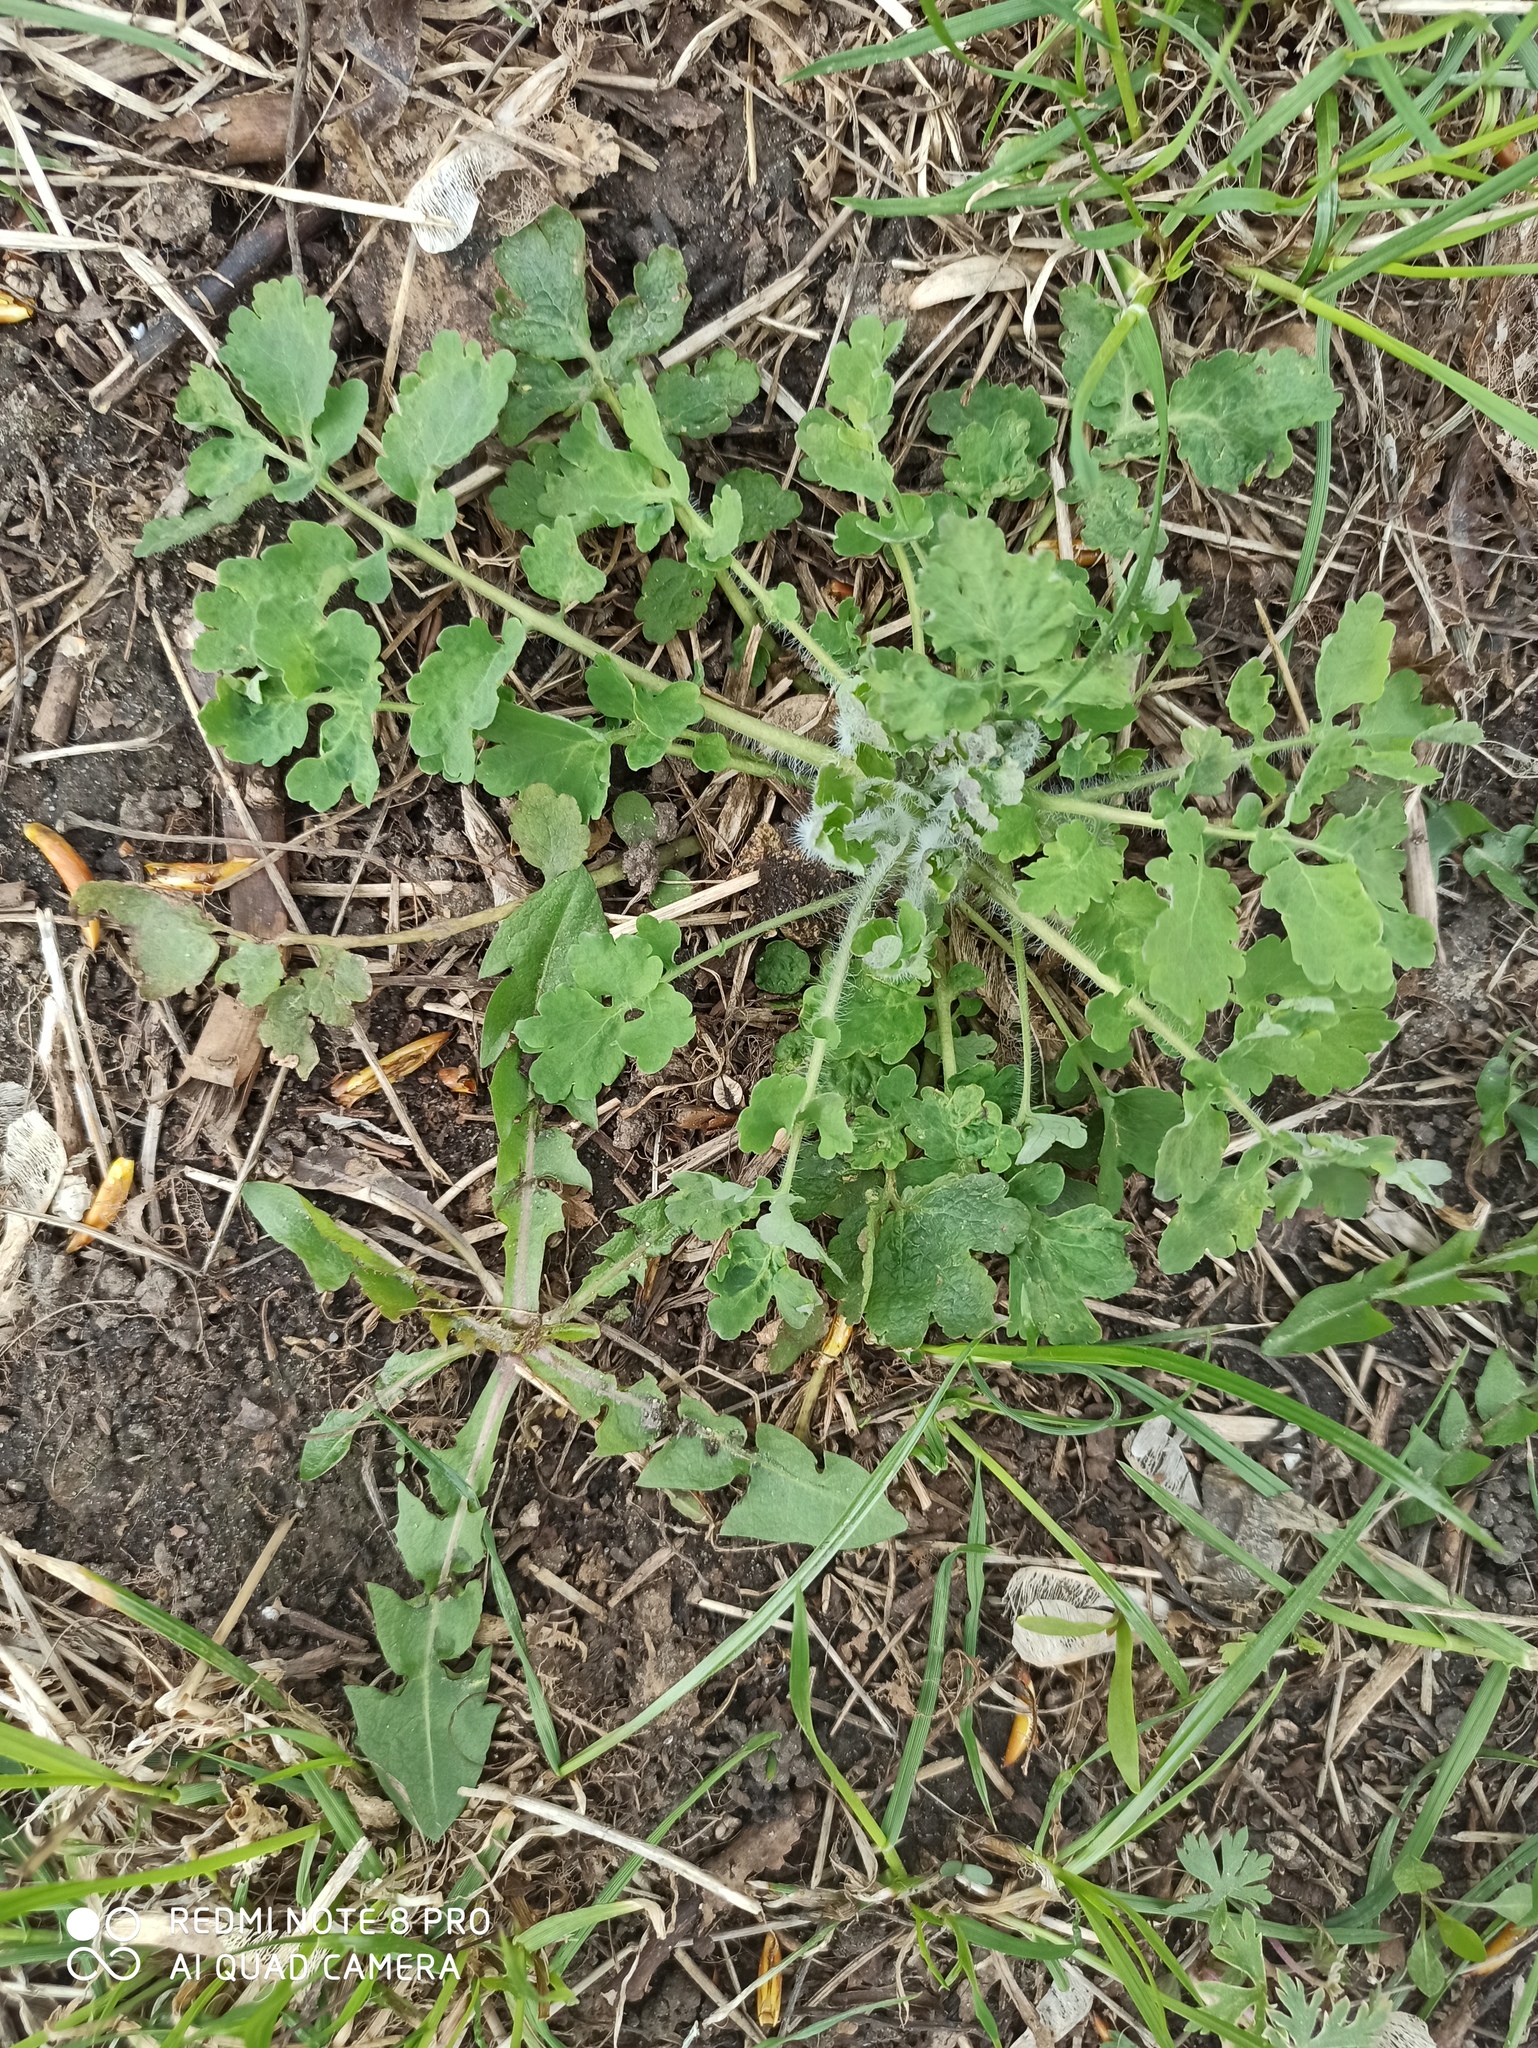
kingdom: Plantae
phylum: Tracheophyta
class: Magnoliopsida
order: Ranunculales
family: Papaveraceae
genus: Chelidonium
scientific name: Chelidonium majus
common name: Greater celandine
